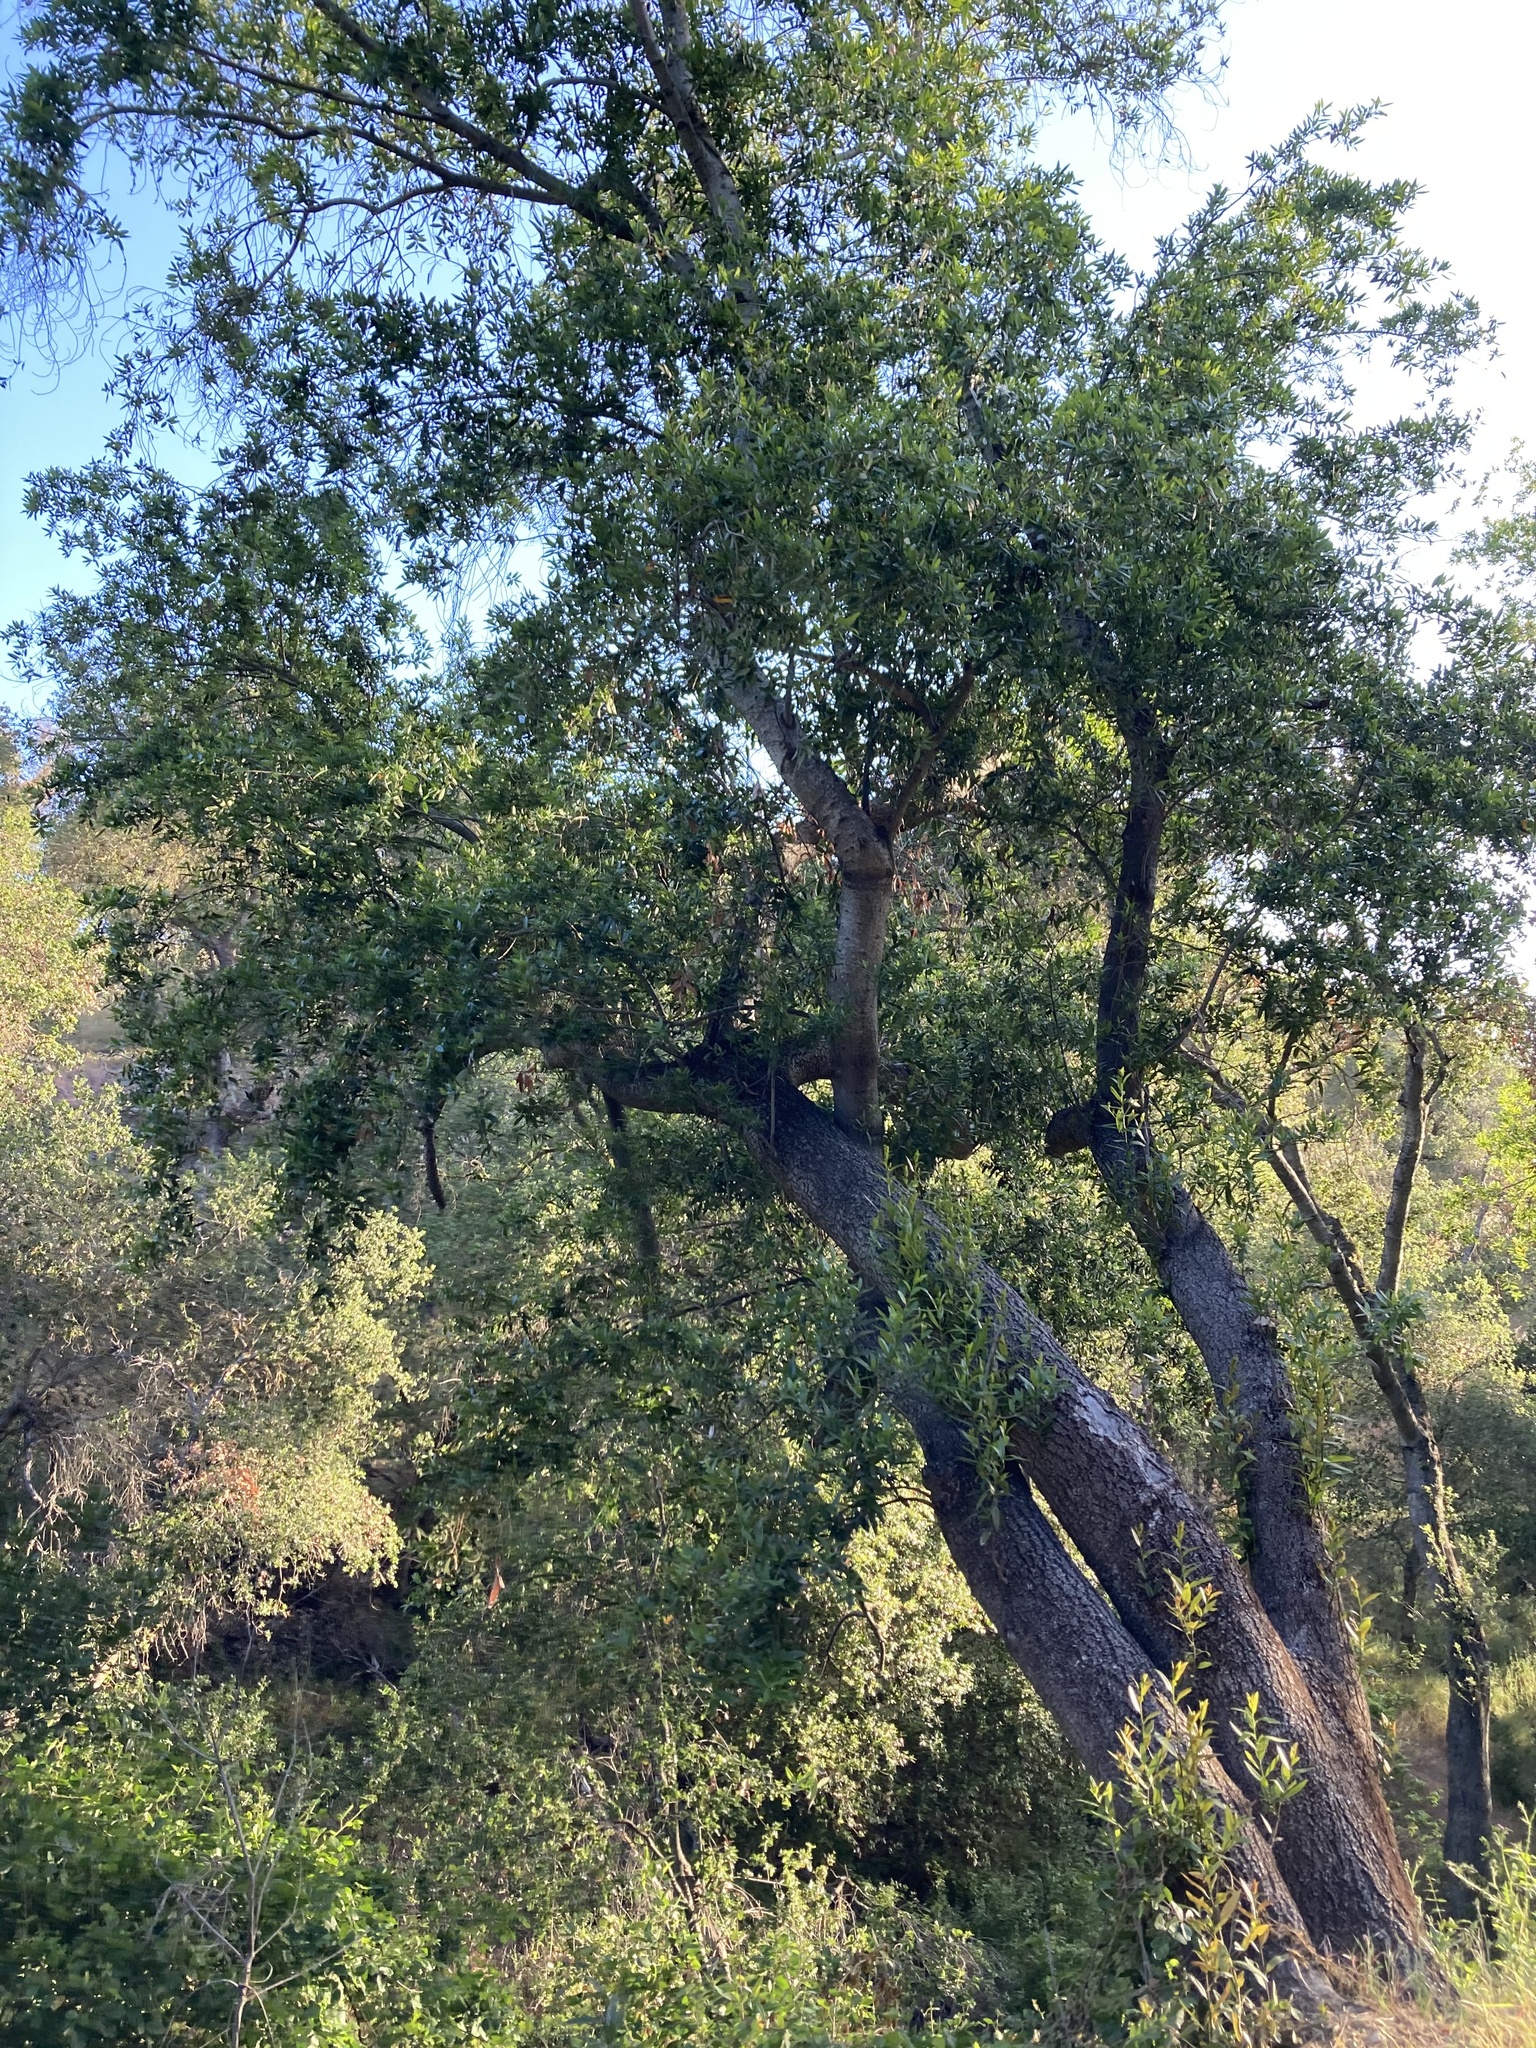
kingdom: Plantae
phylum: Tracheophyta
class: Magnoliopsida
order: Laurales
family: Lauraceae
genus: Umbellularia
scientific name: Umbellularia californica
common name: California bay
